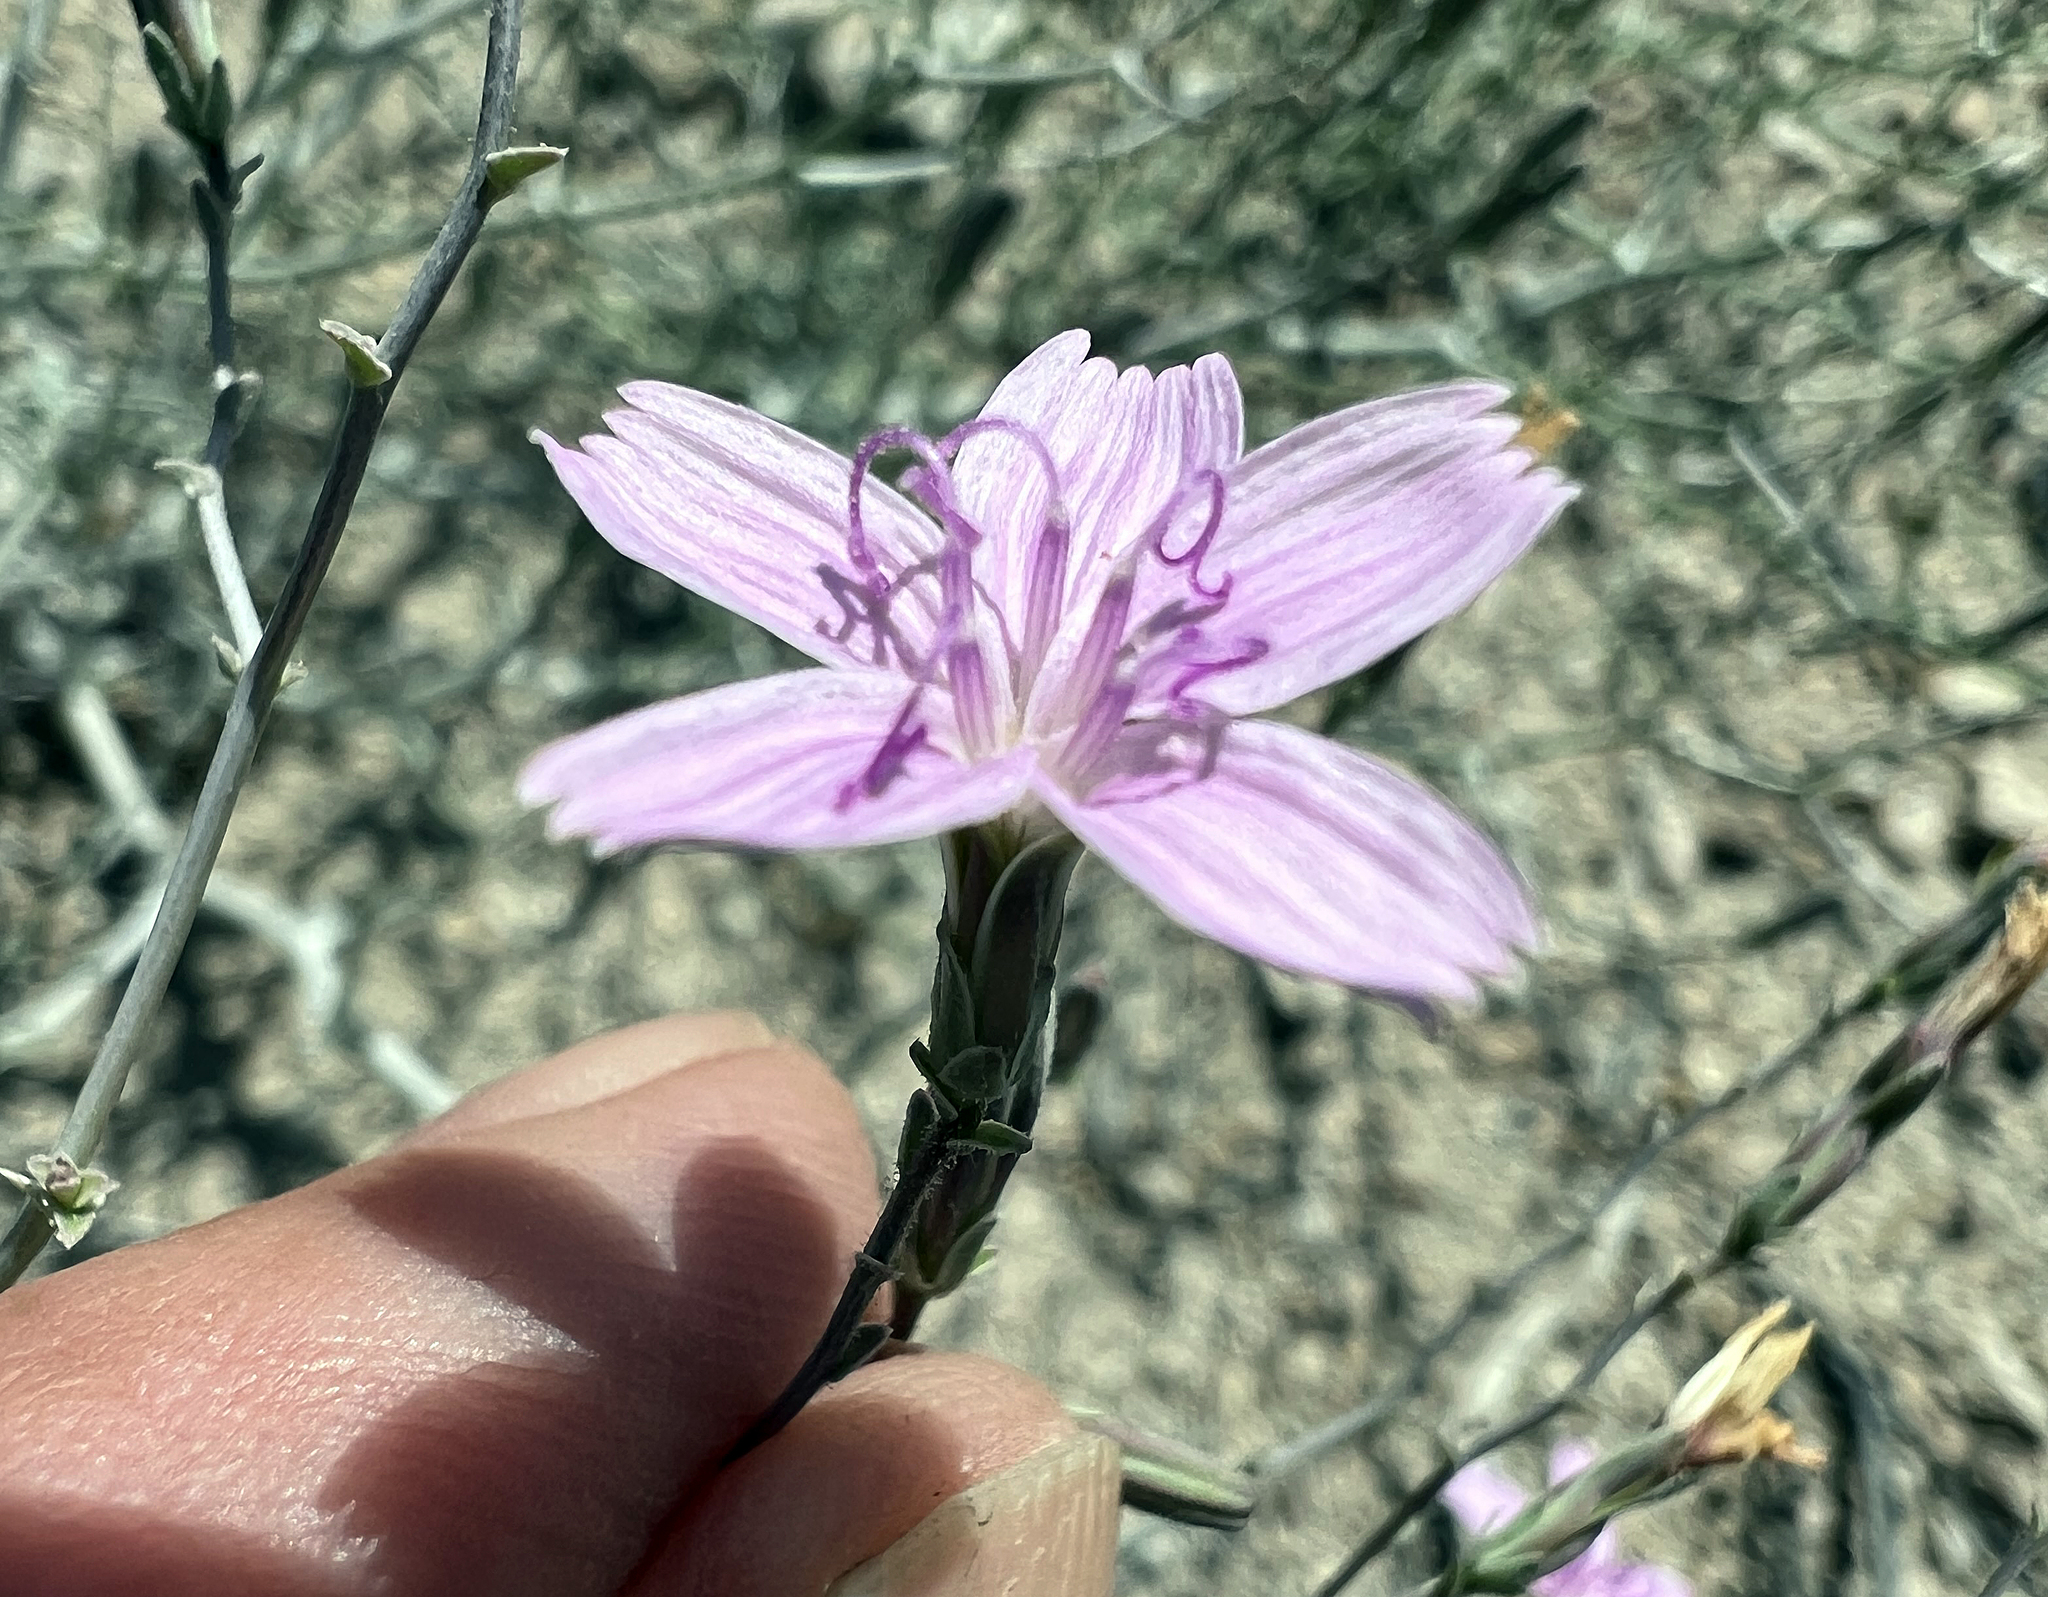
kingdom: Plantae
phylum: Tracheophyta
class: Magnoliopsida
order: Asterales
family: Asteraceae
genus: Stephanomeria
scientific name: Stephanomeria exigua
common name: Small wirelettuce
